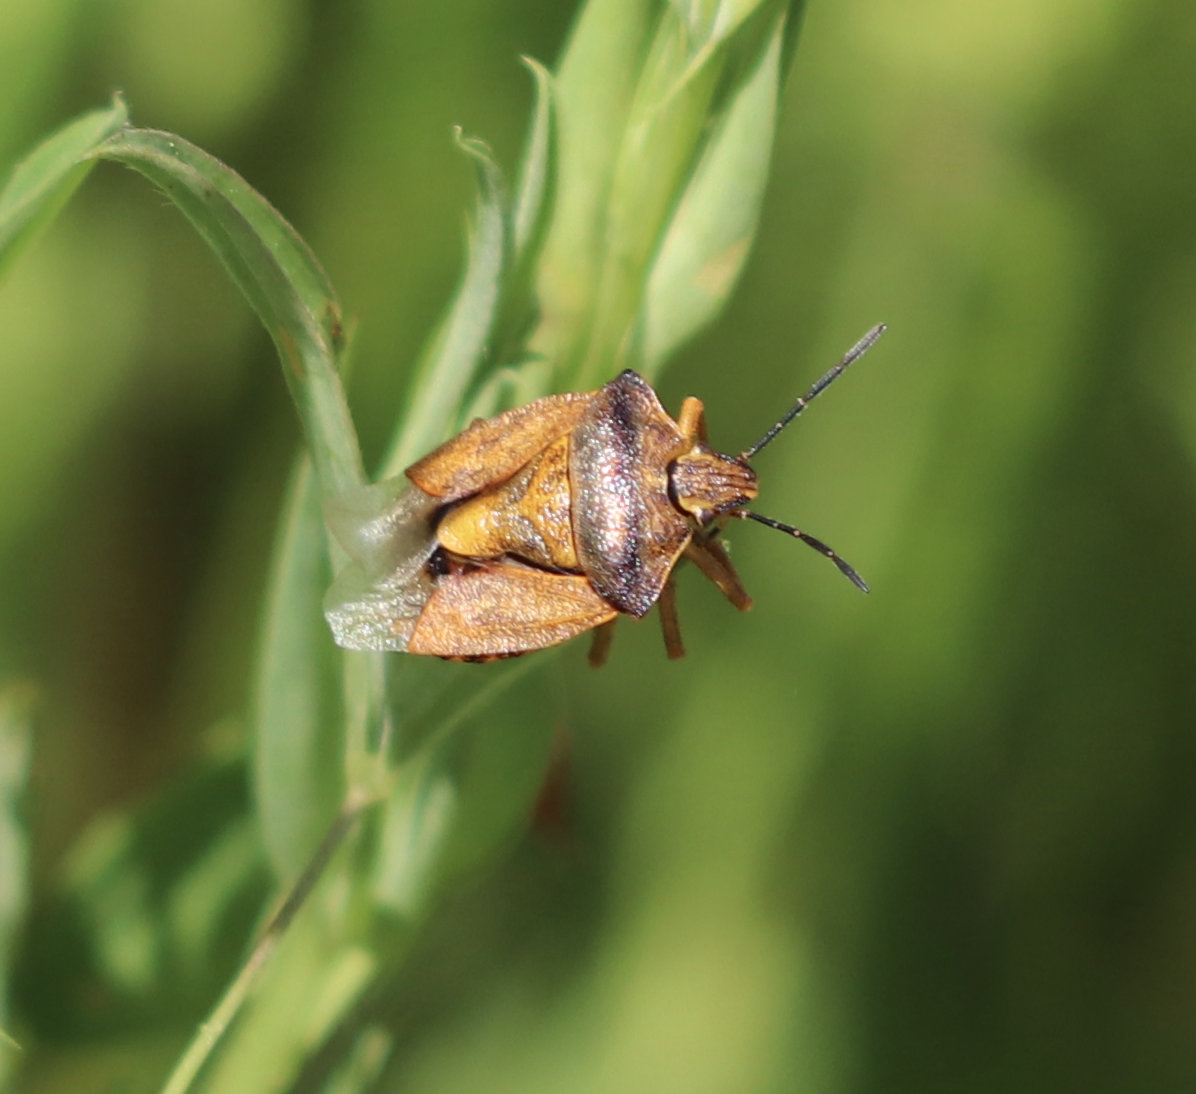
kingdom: Animalia
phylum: Arthropoda
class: Insecta
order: Hemiptera
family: Pentatomidae
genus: Carpocoris
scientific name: Carpocoris purpureipennis
